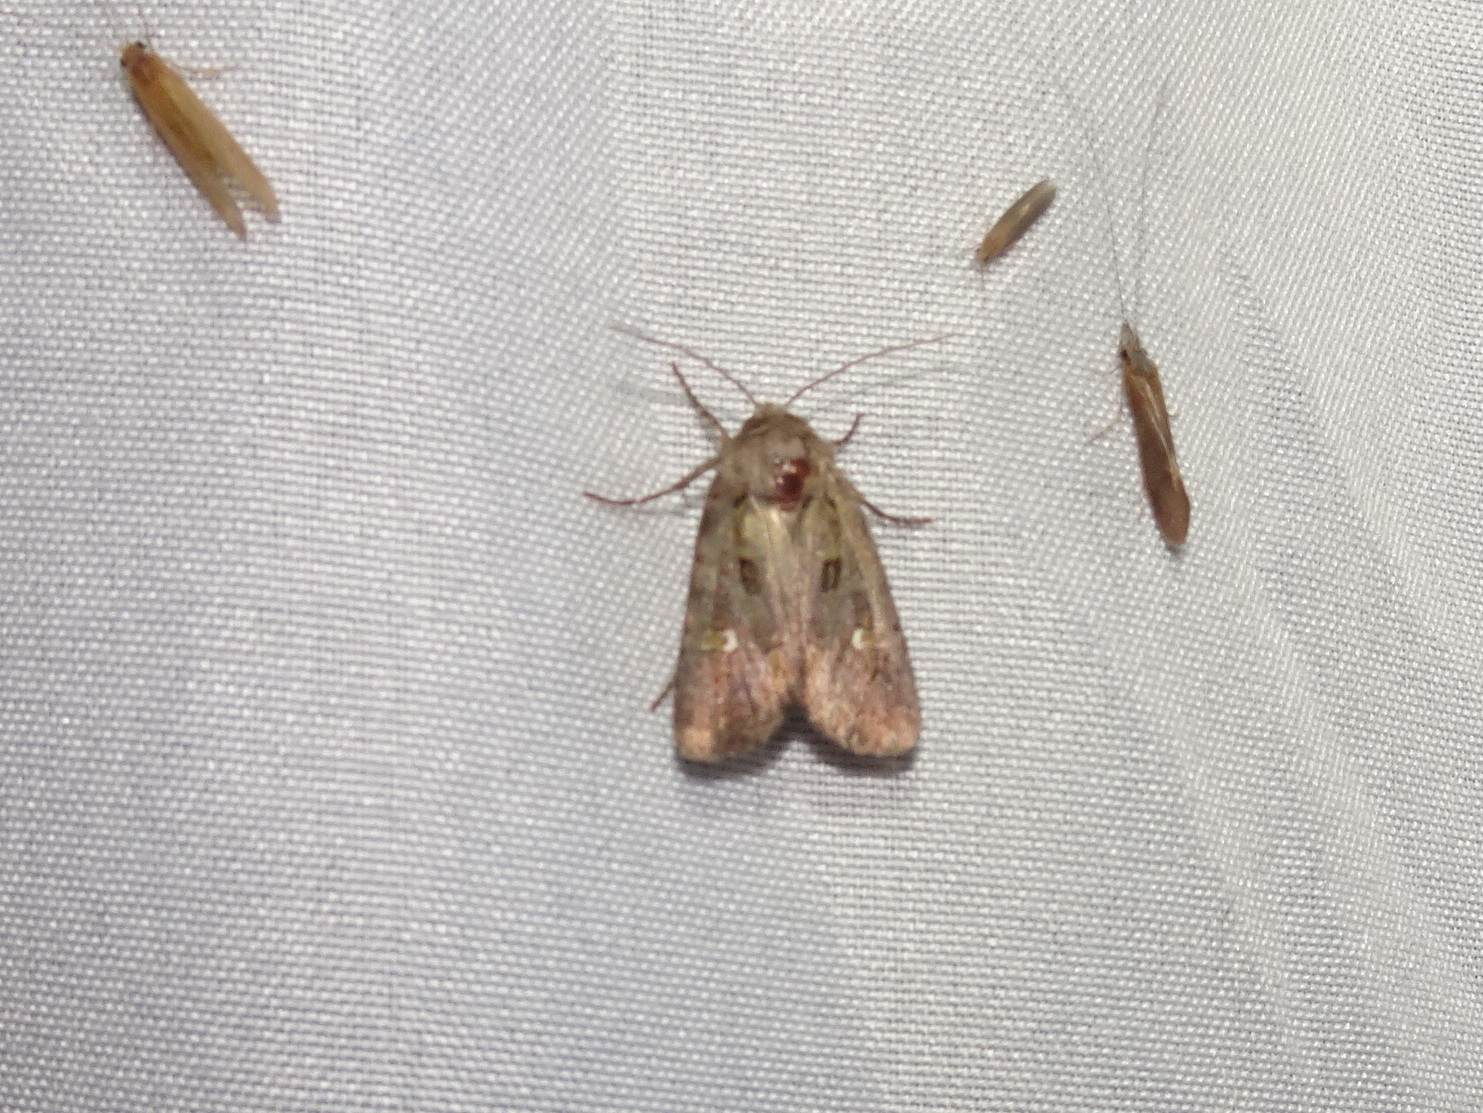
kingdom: Animalia
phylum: Arthropoda
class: Insecta
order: Lepidoptera
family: Noctuidae
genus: Lacinipolia
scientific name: Lacinipolia renigera
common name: Kidney-spotted minor
